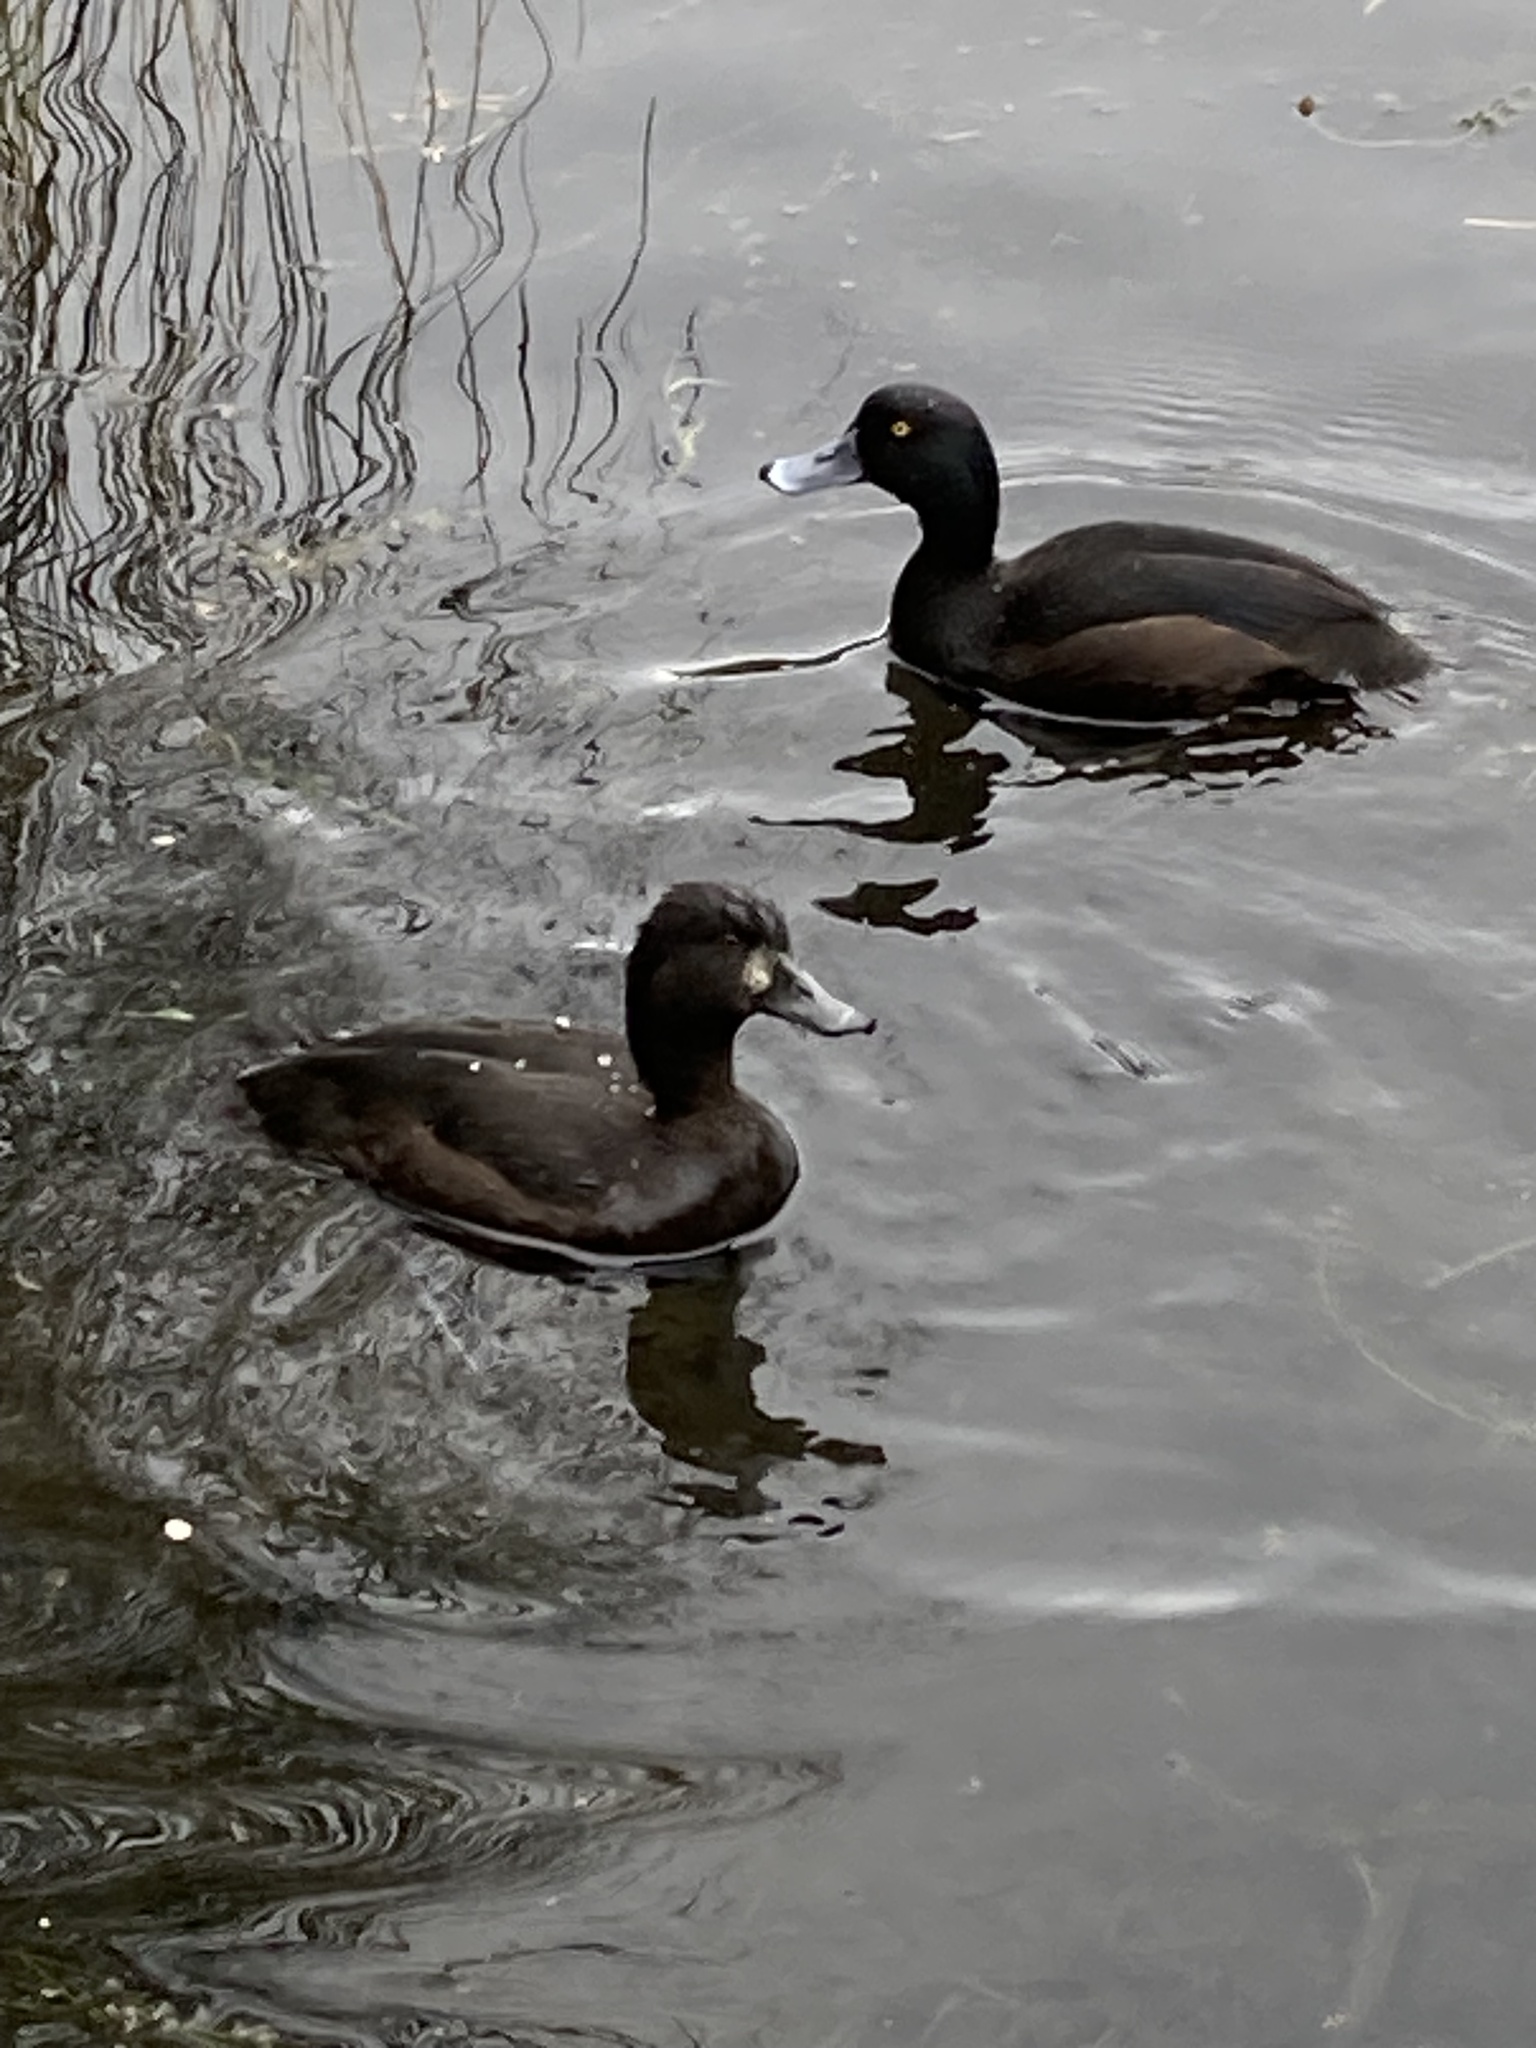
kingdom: Animalia
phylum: Chordata
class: Aves
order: Anseriformes
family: Anatidae
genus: Aythya
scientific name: Aythya novaeseelandiae
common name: New zealand scaup
